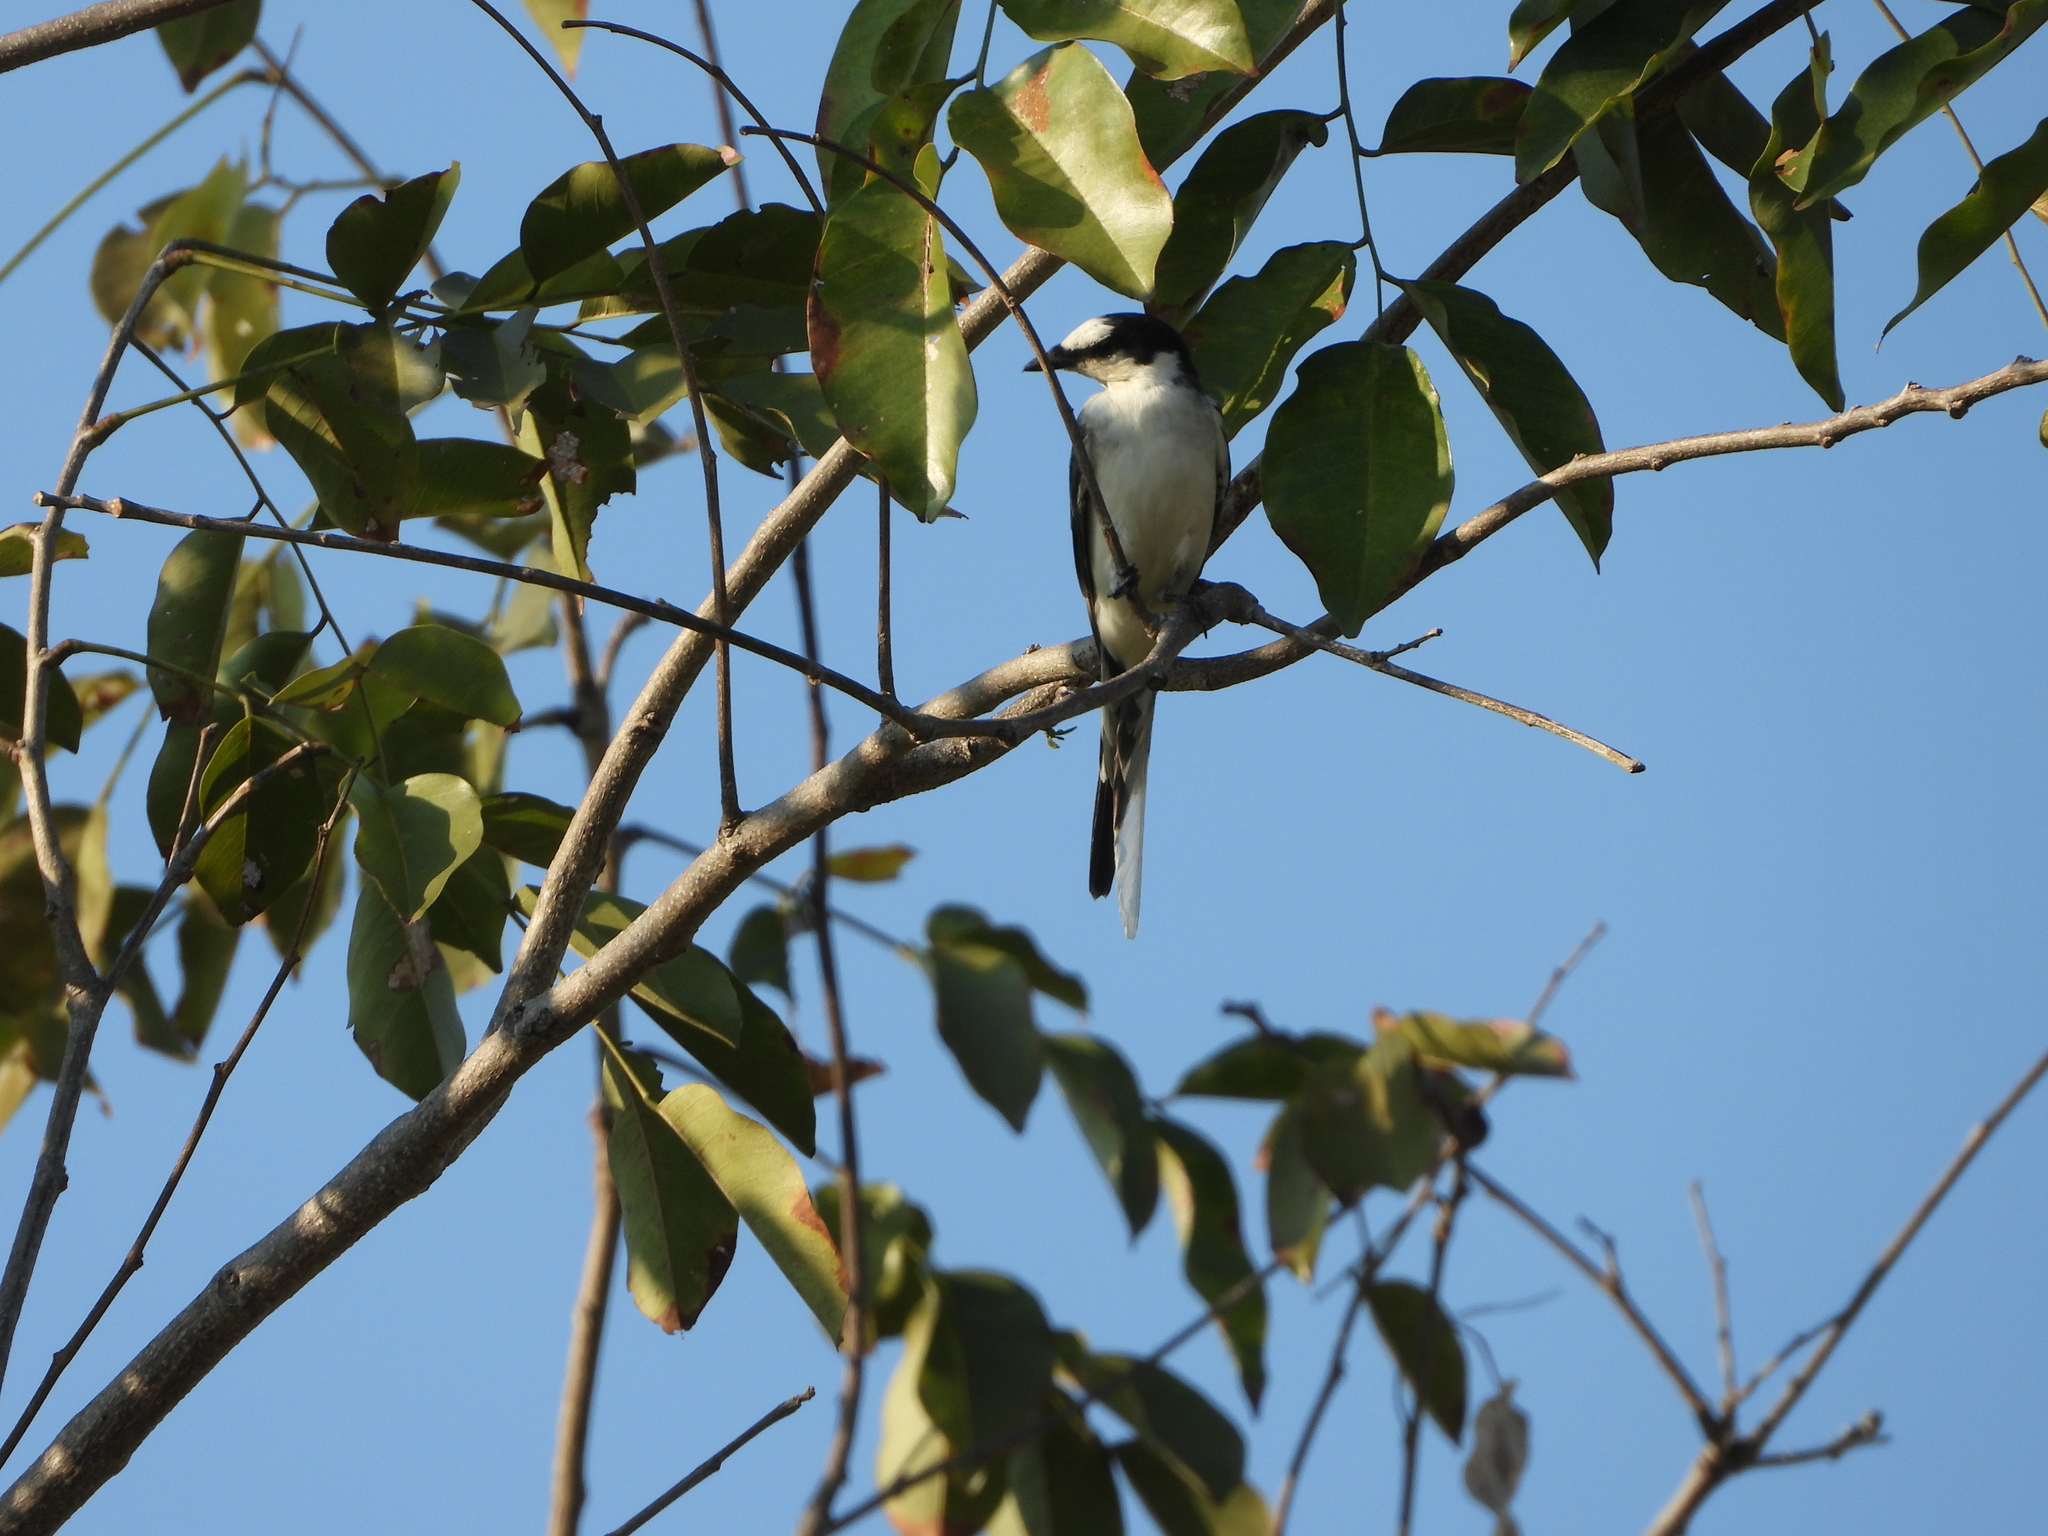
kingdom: Animalia
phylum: Chordata
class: Aves
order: Passeriformes
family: Campephagidae
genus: Pericrocotus
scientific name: Pericrocotus divaricatus
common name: Ashy minivet
